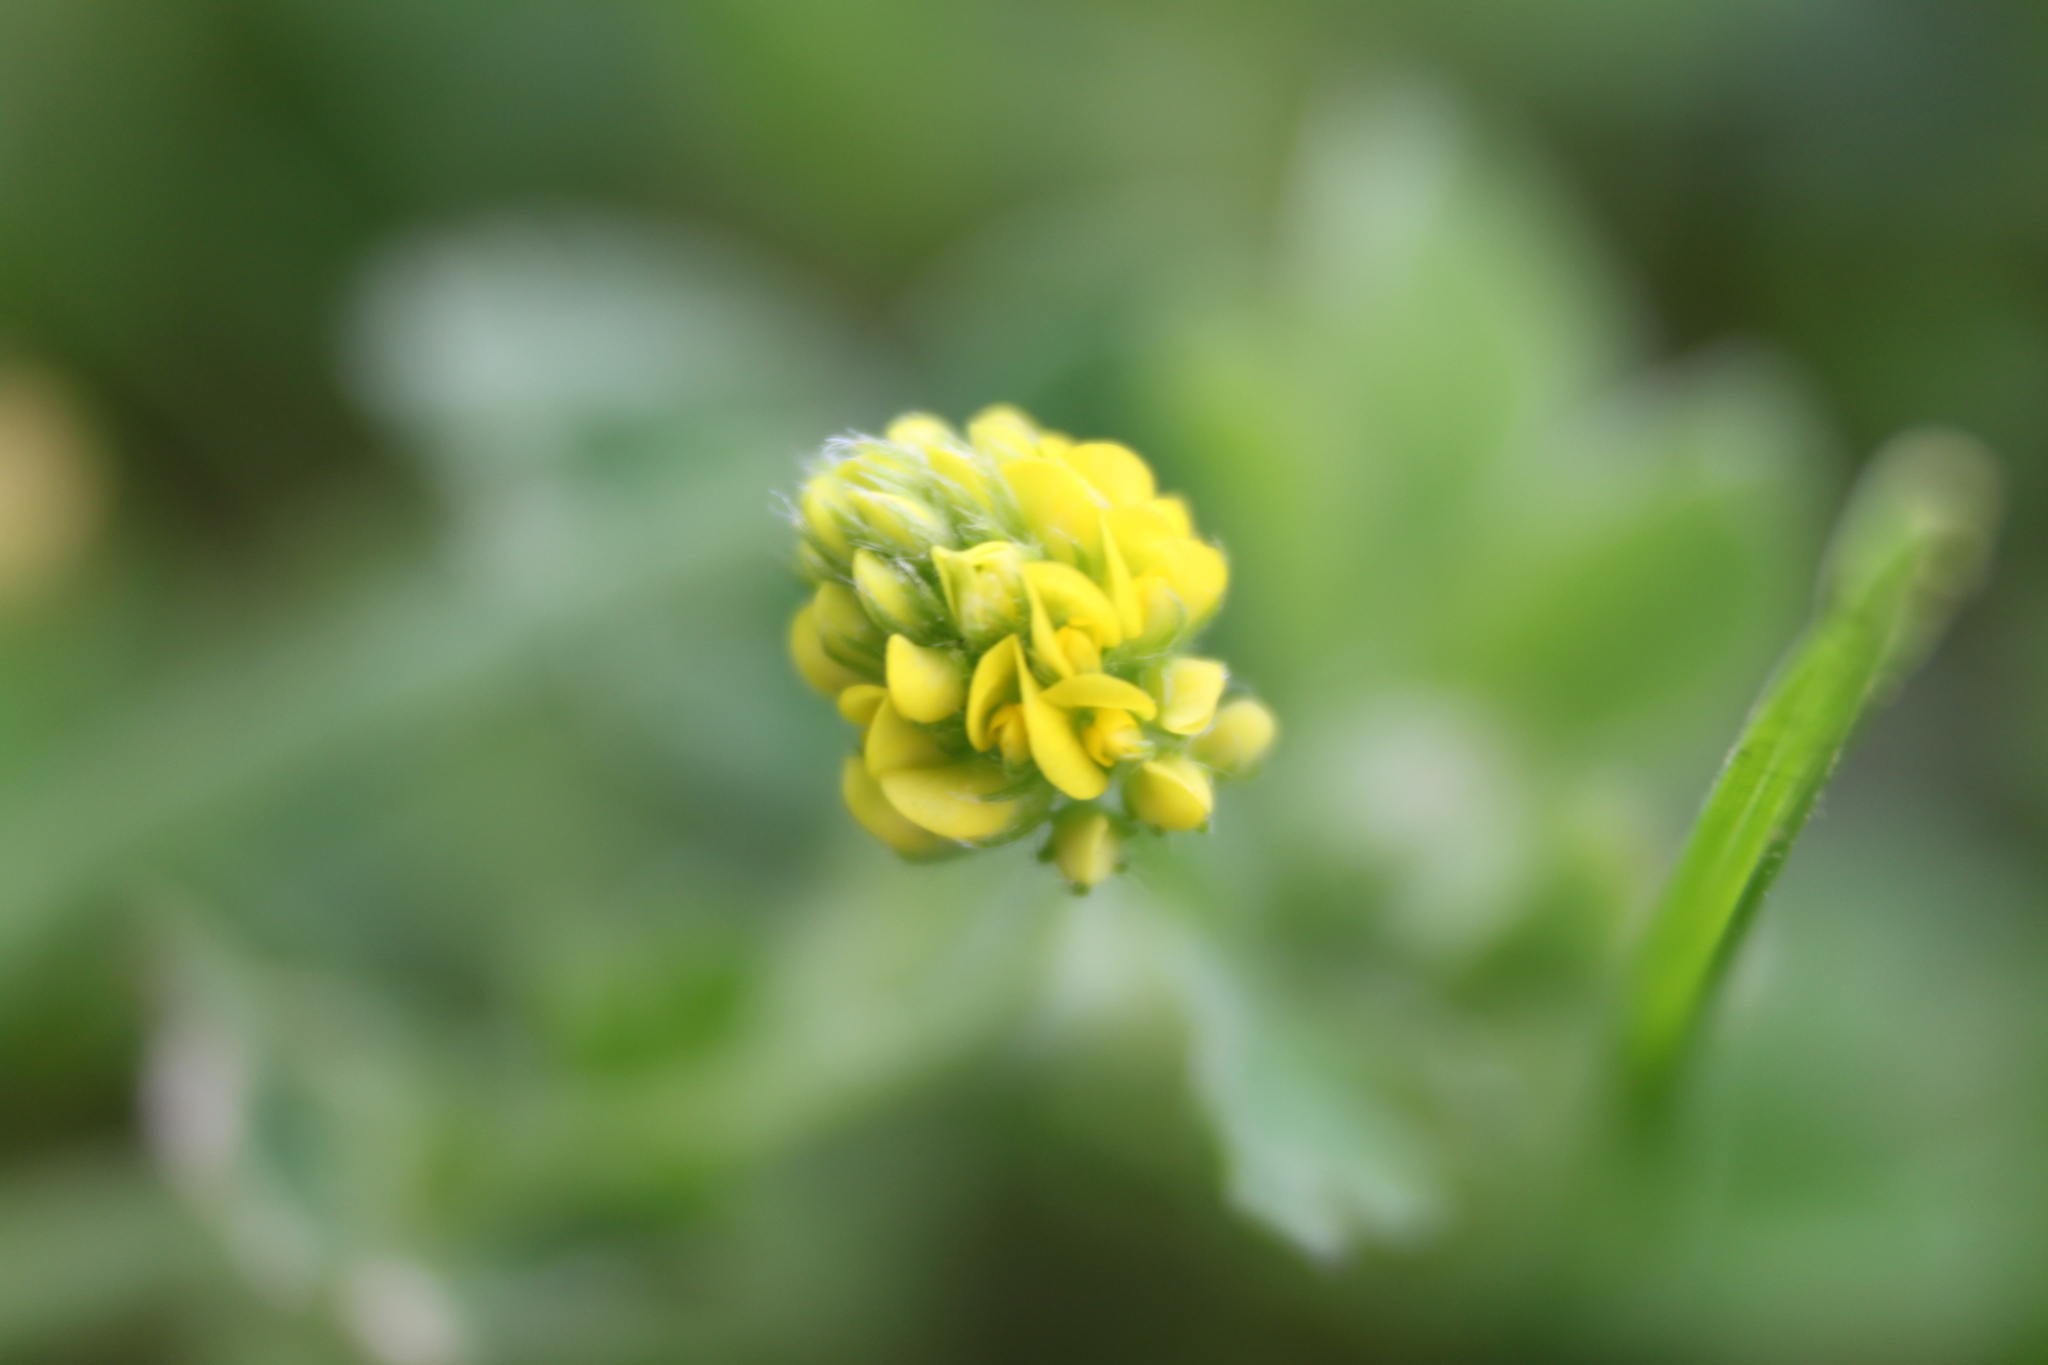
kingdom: Plantae
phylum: Tracheophyta
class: Magnoliopsida
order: Fabales
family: Fabaceae
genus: Medicago
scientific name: Medicago lupulina
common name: Black medick
